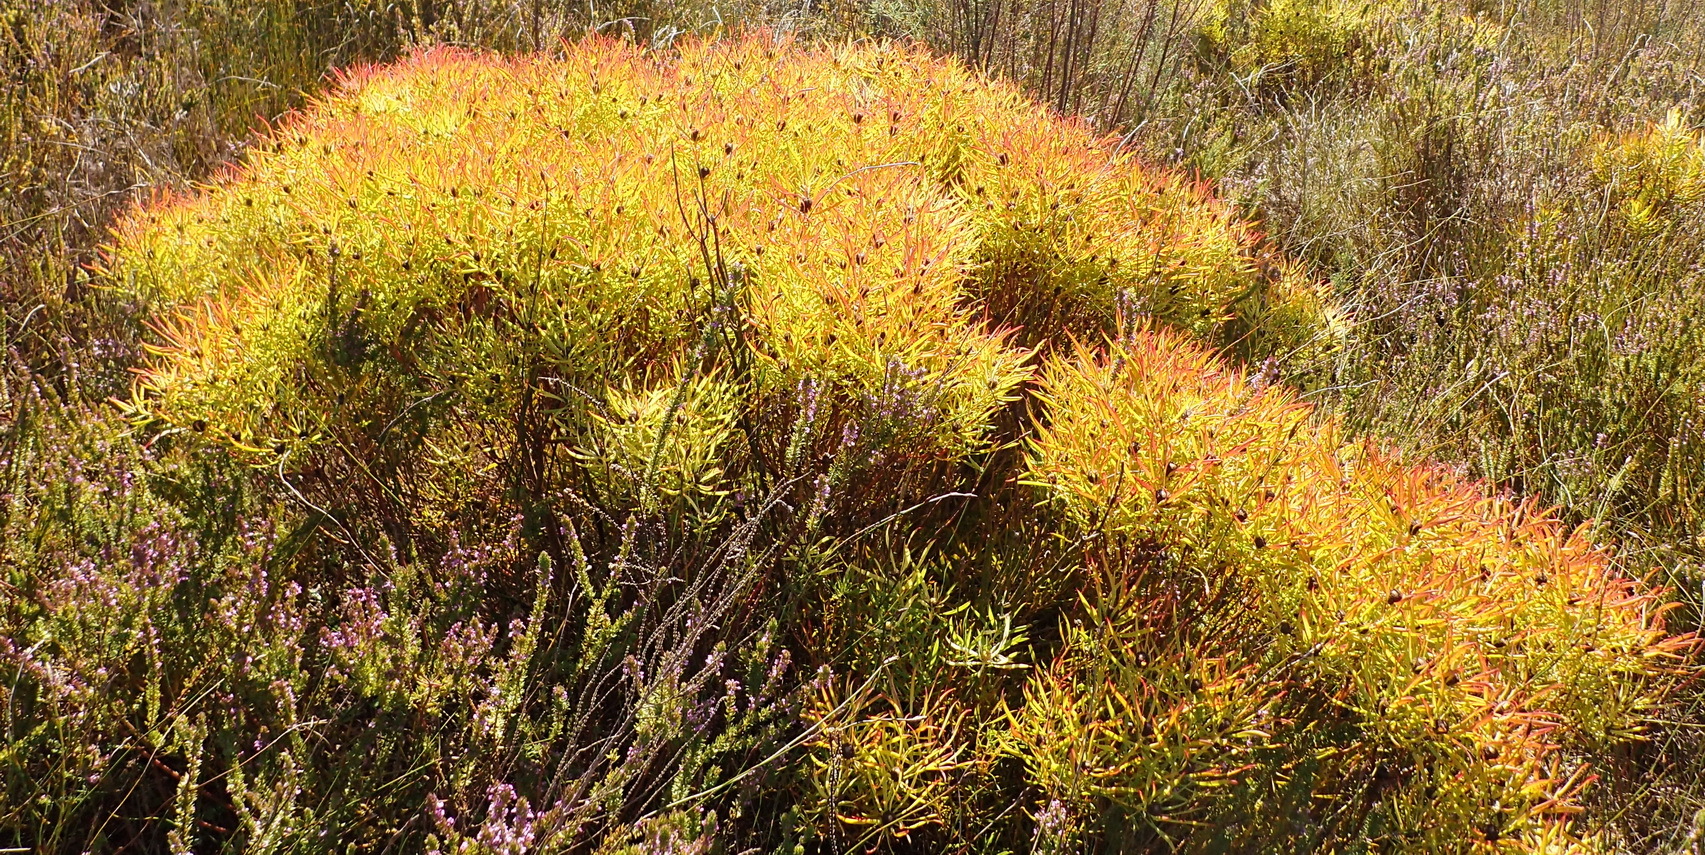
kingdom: Plantae
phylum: Tracheophyta
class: Magnoliopsida
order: Proteales
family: Proteaceae
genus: Leucadendron
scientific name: Leucadendron salignum
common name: Common sunshine conebush
